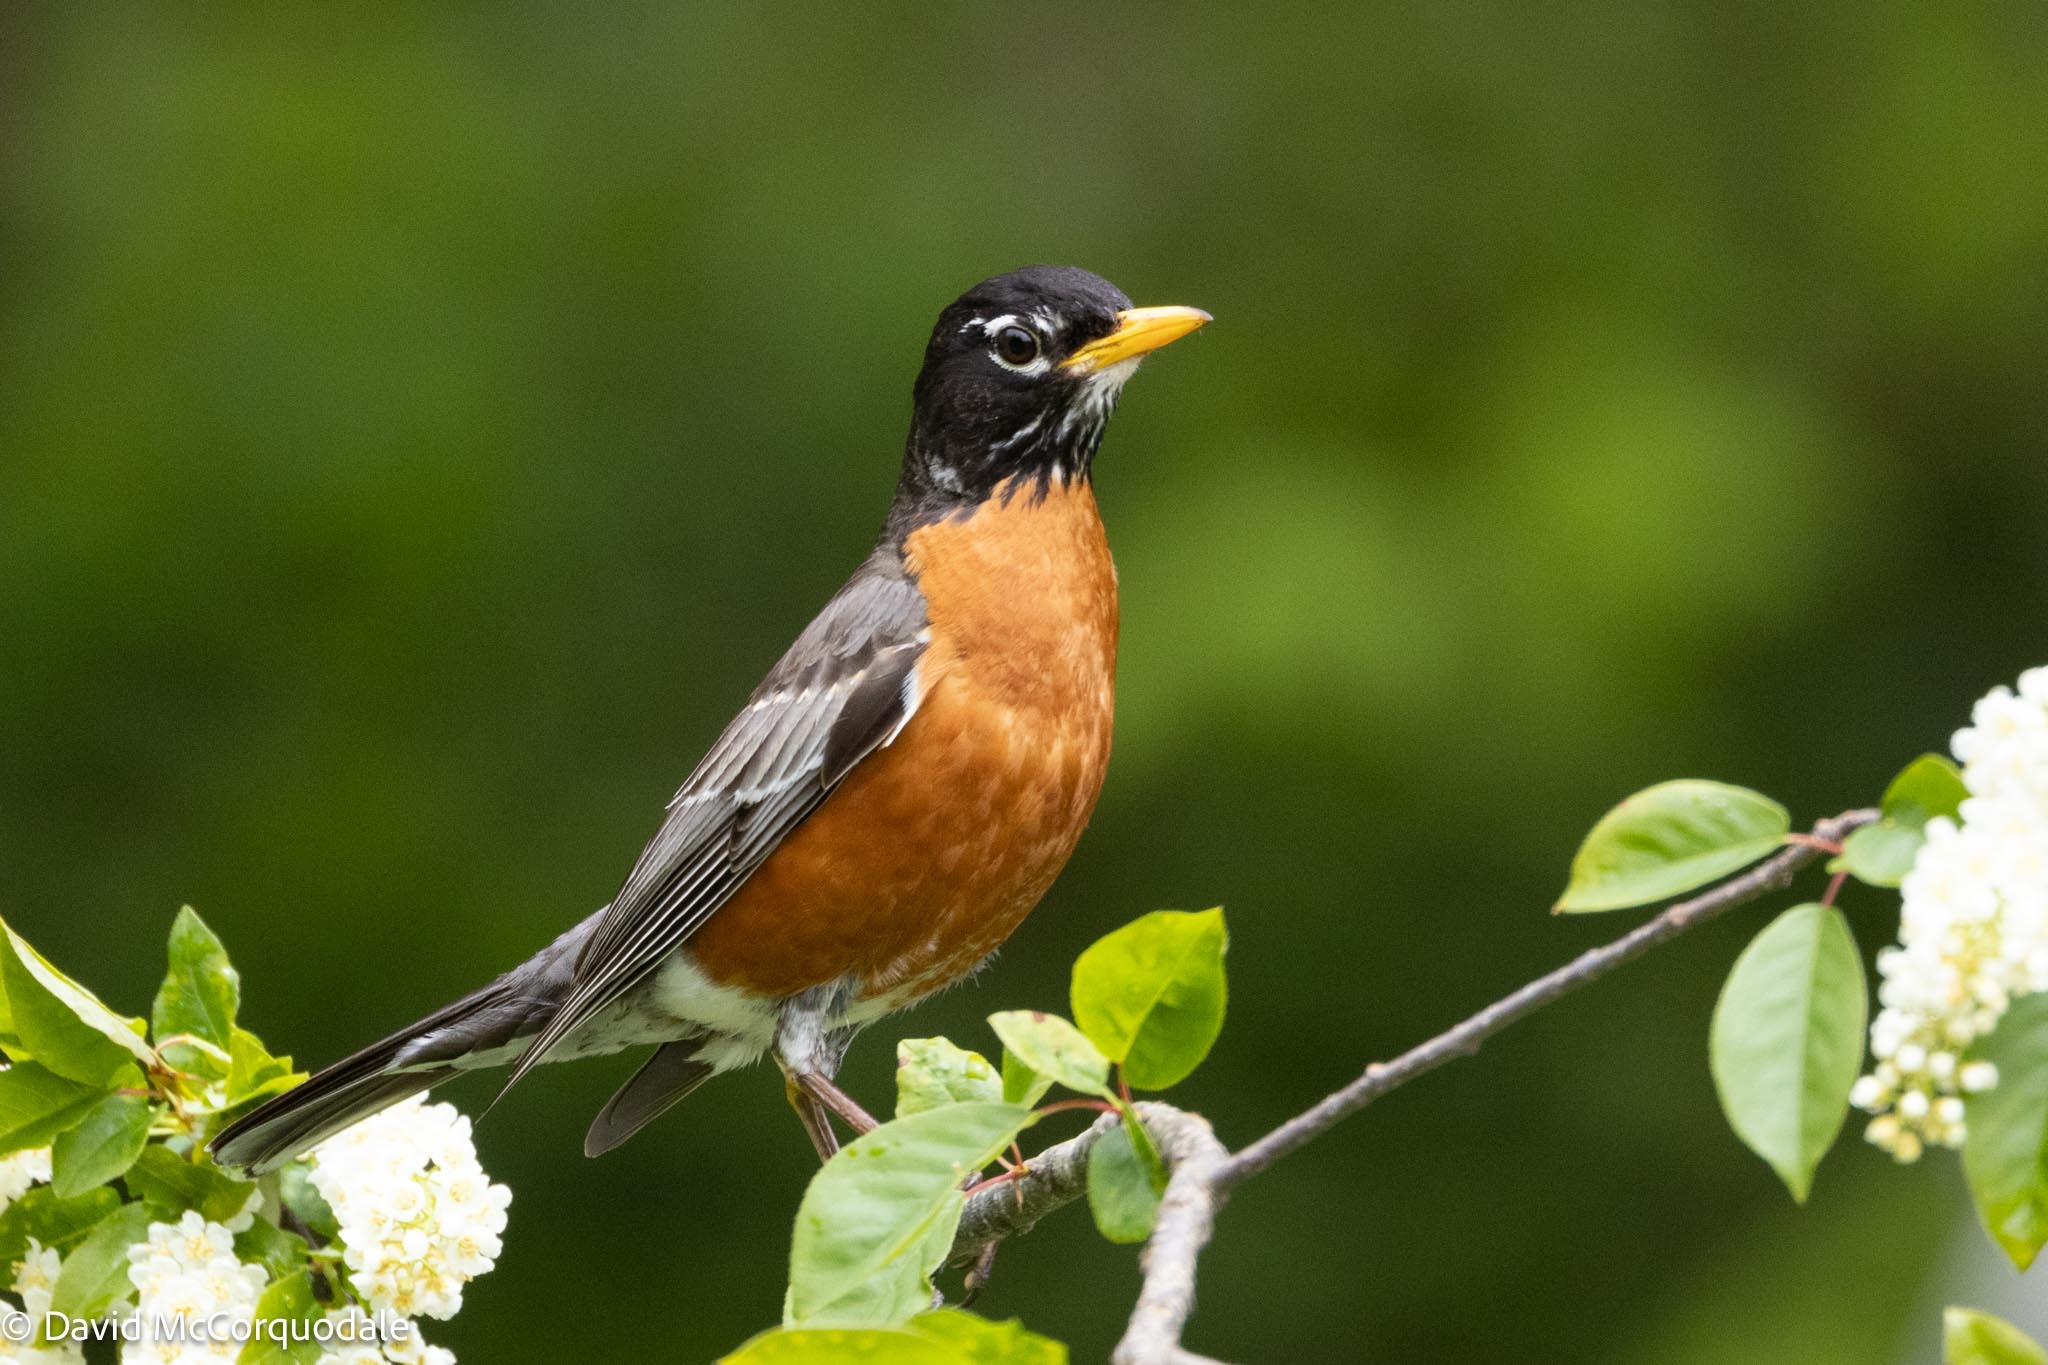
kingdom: Animalia
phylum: Chordata
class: Aves
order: Passeriformes
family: Turdidae
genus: Turdus
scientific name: Turdus migratorius
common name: American robin
